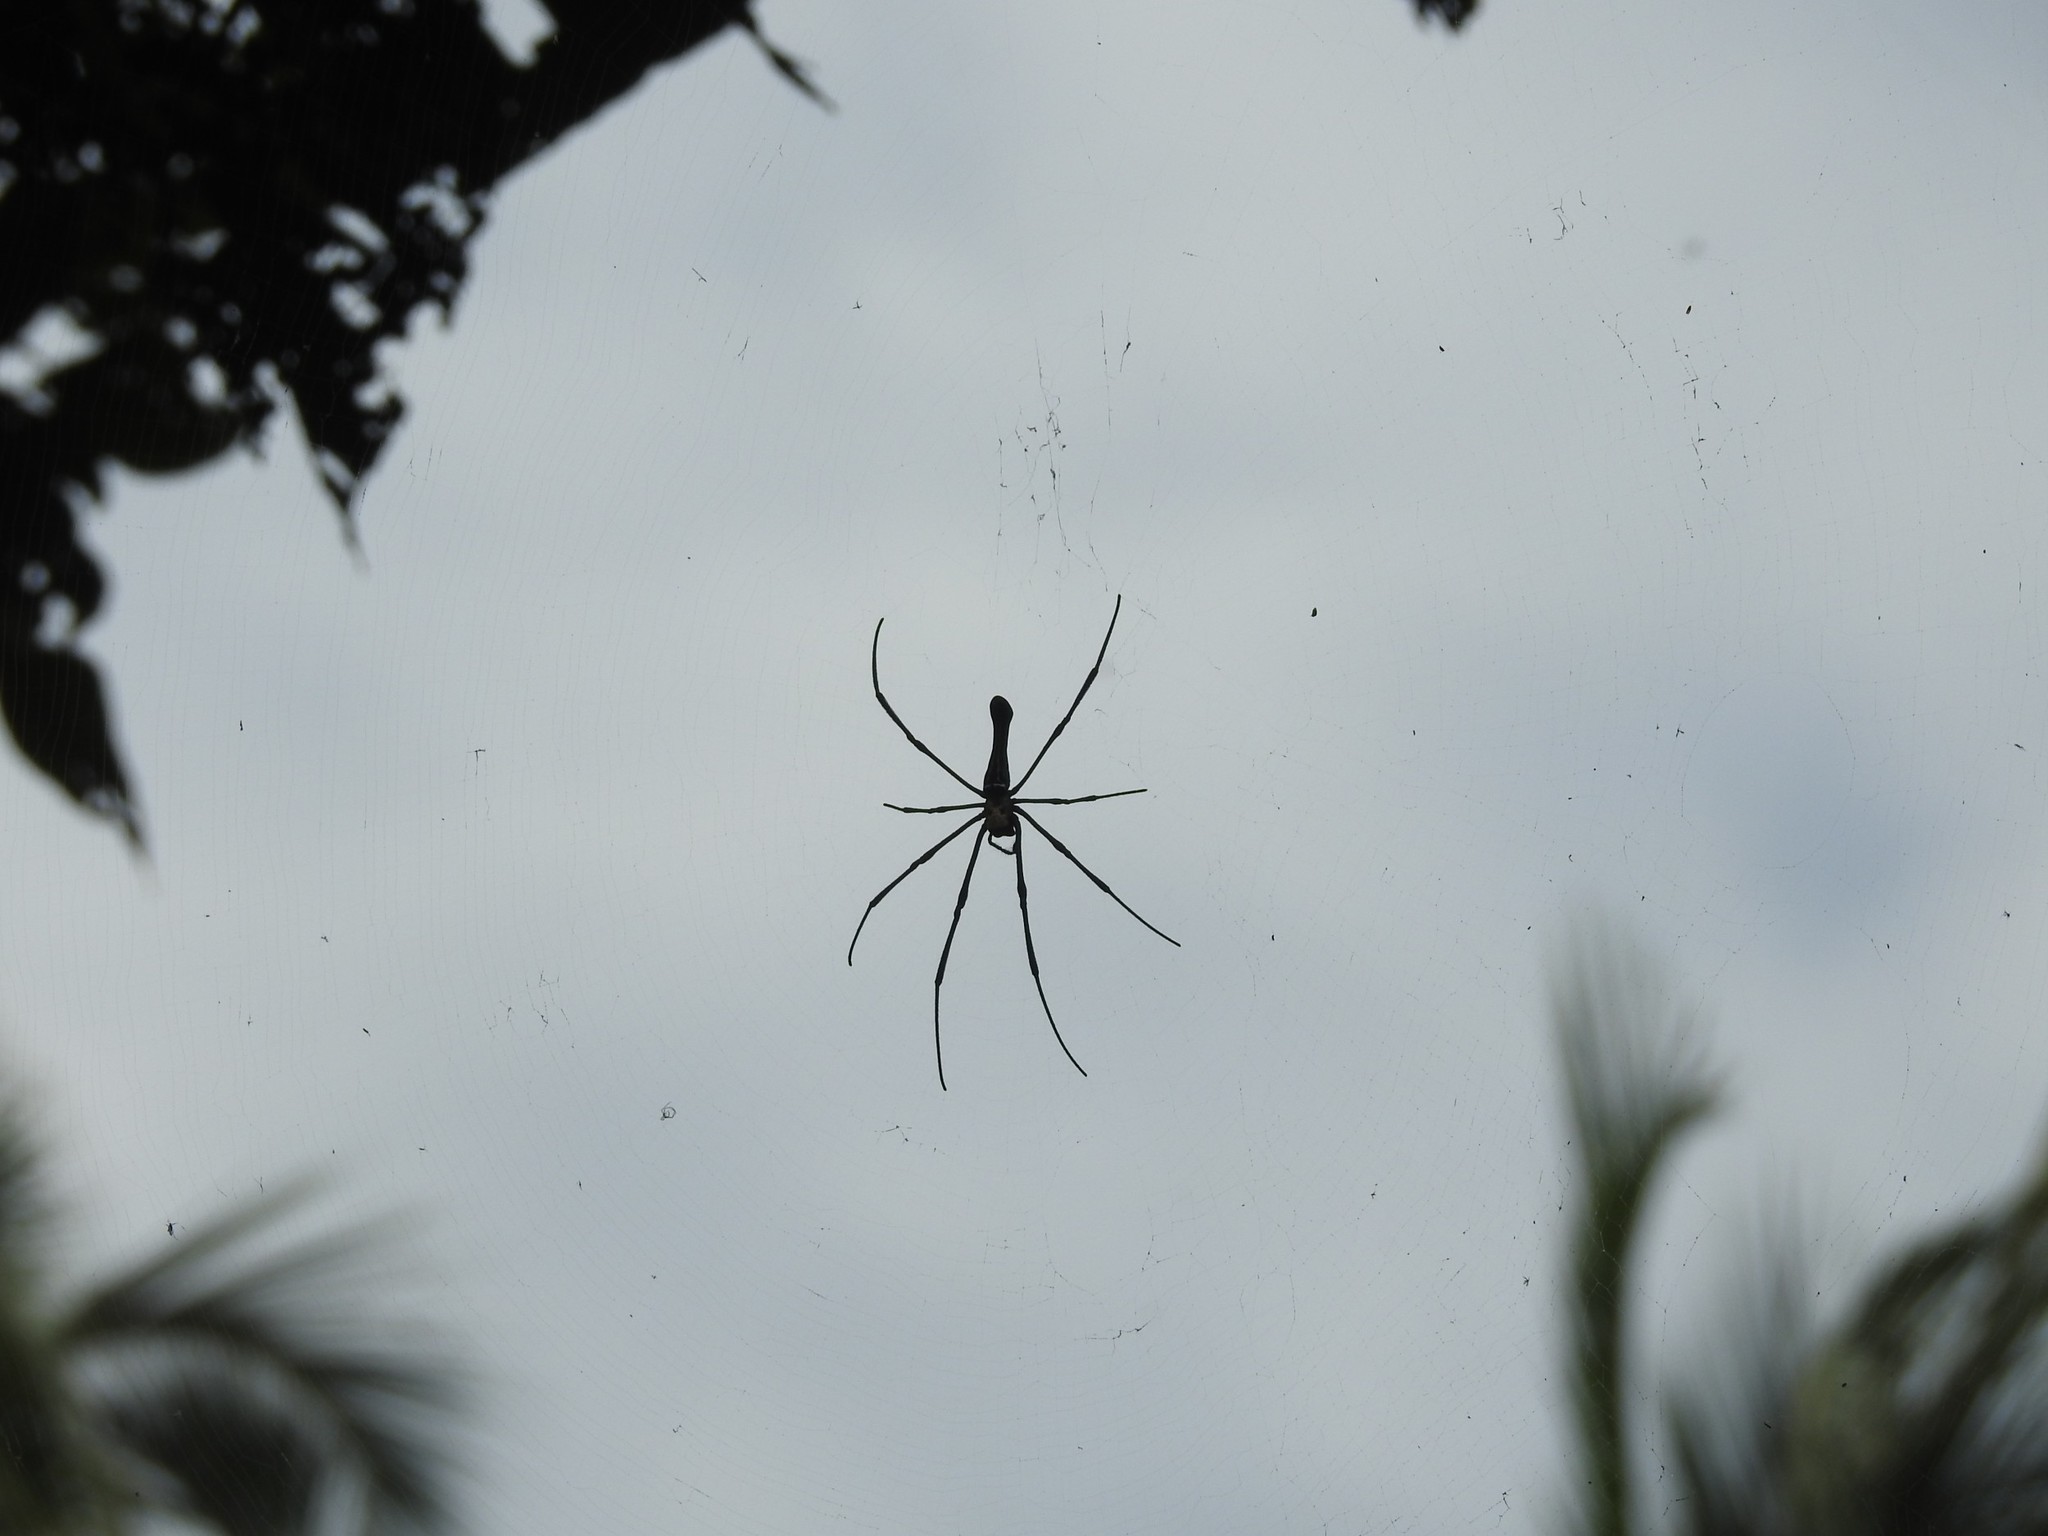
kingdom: Animalia
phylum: Arthropoda
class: Arachnida
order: Araneae
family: Araneidae
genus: Nephila
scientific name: Nephila pilipes
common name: Giant golden orb weaver
